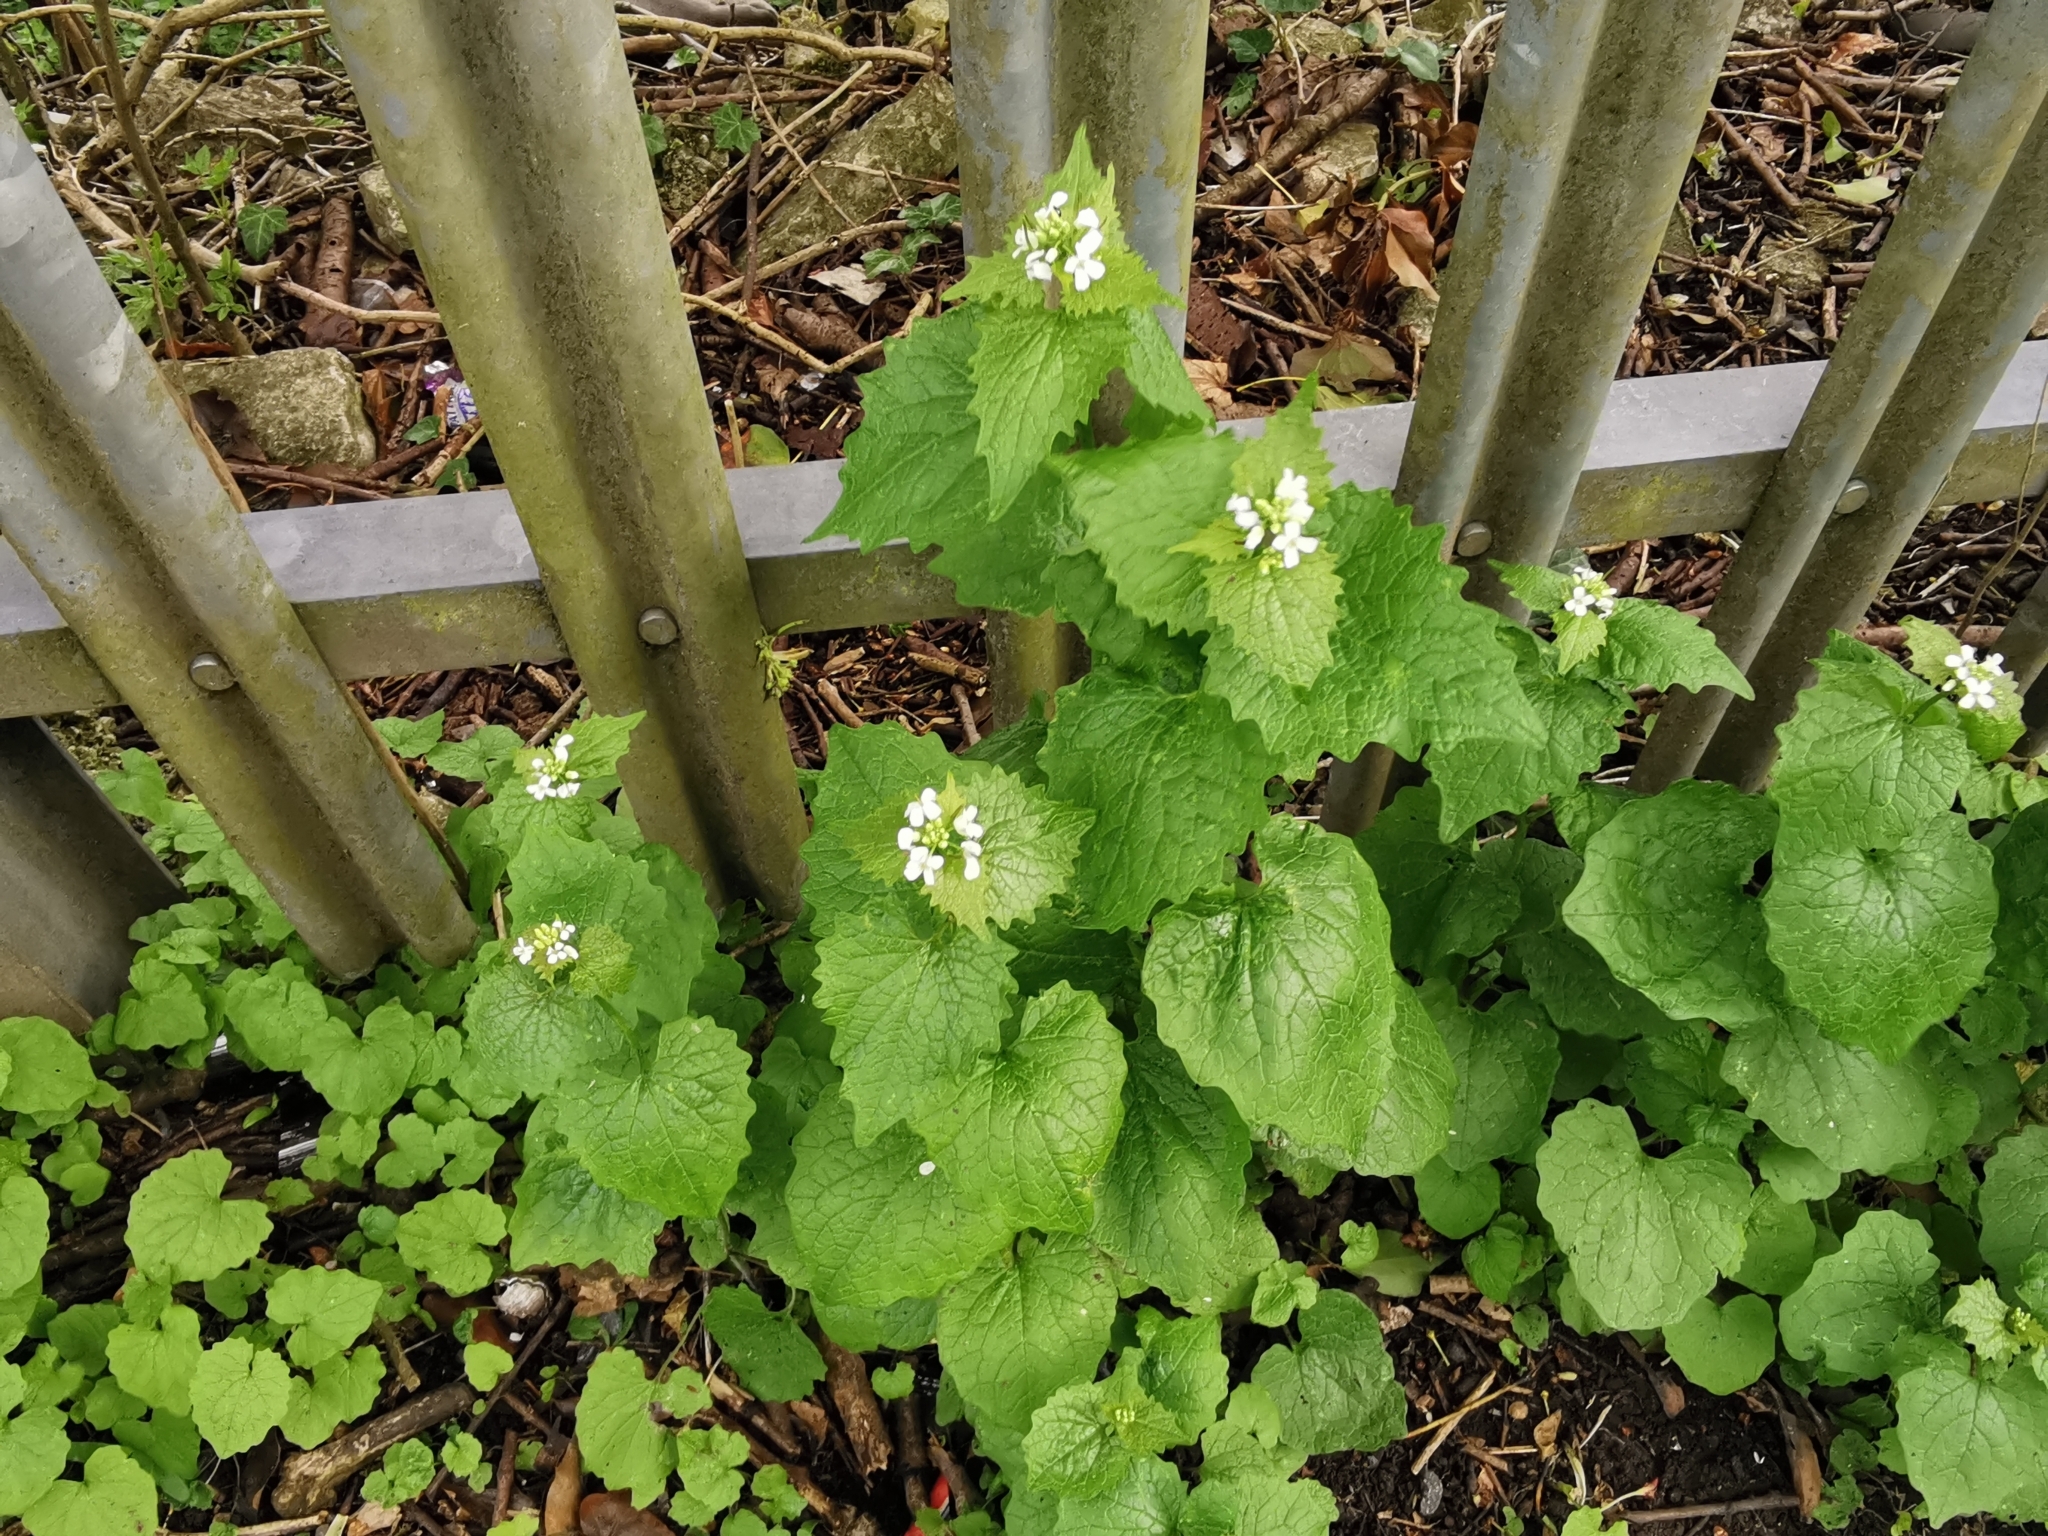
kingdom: Plantae
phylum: Tracheophyta
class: Magnoliopsida
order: Brassicales
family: Brassicaceae
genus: Alliaria
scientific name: Alliaria petiolata
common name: Garlic mustard
